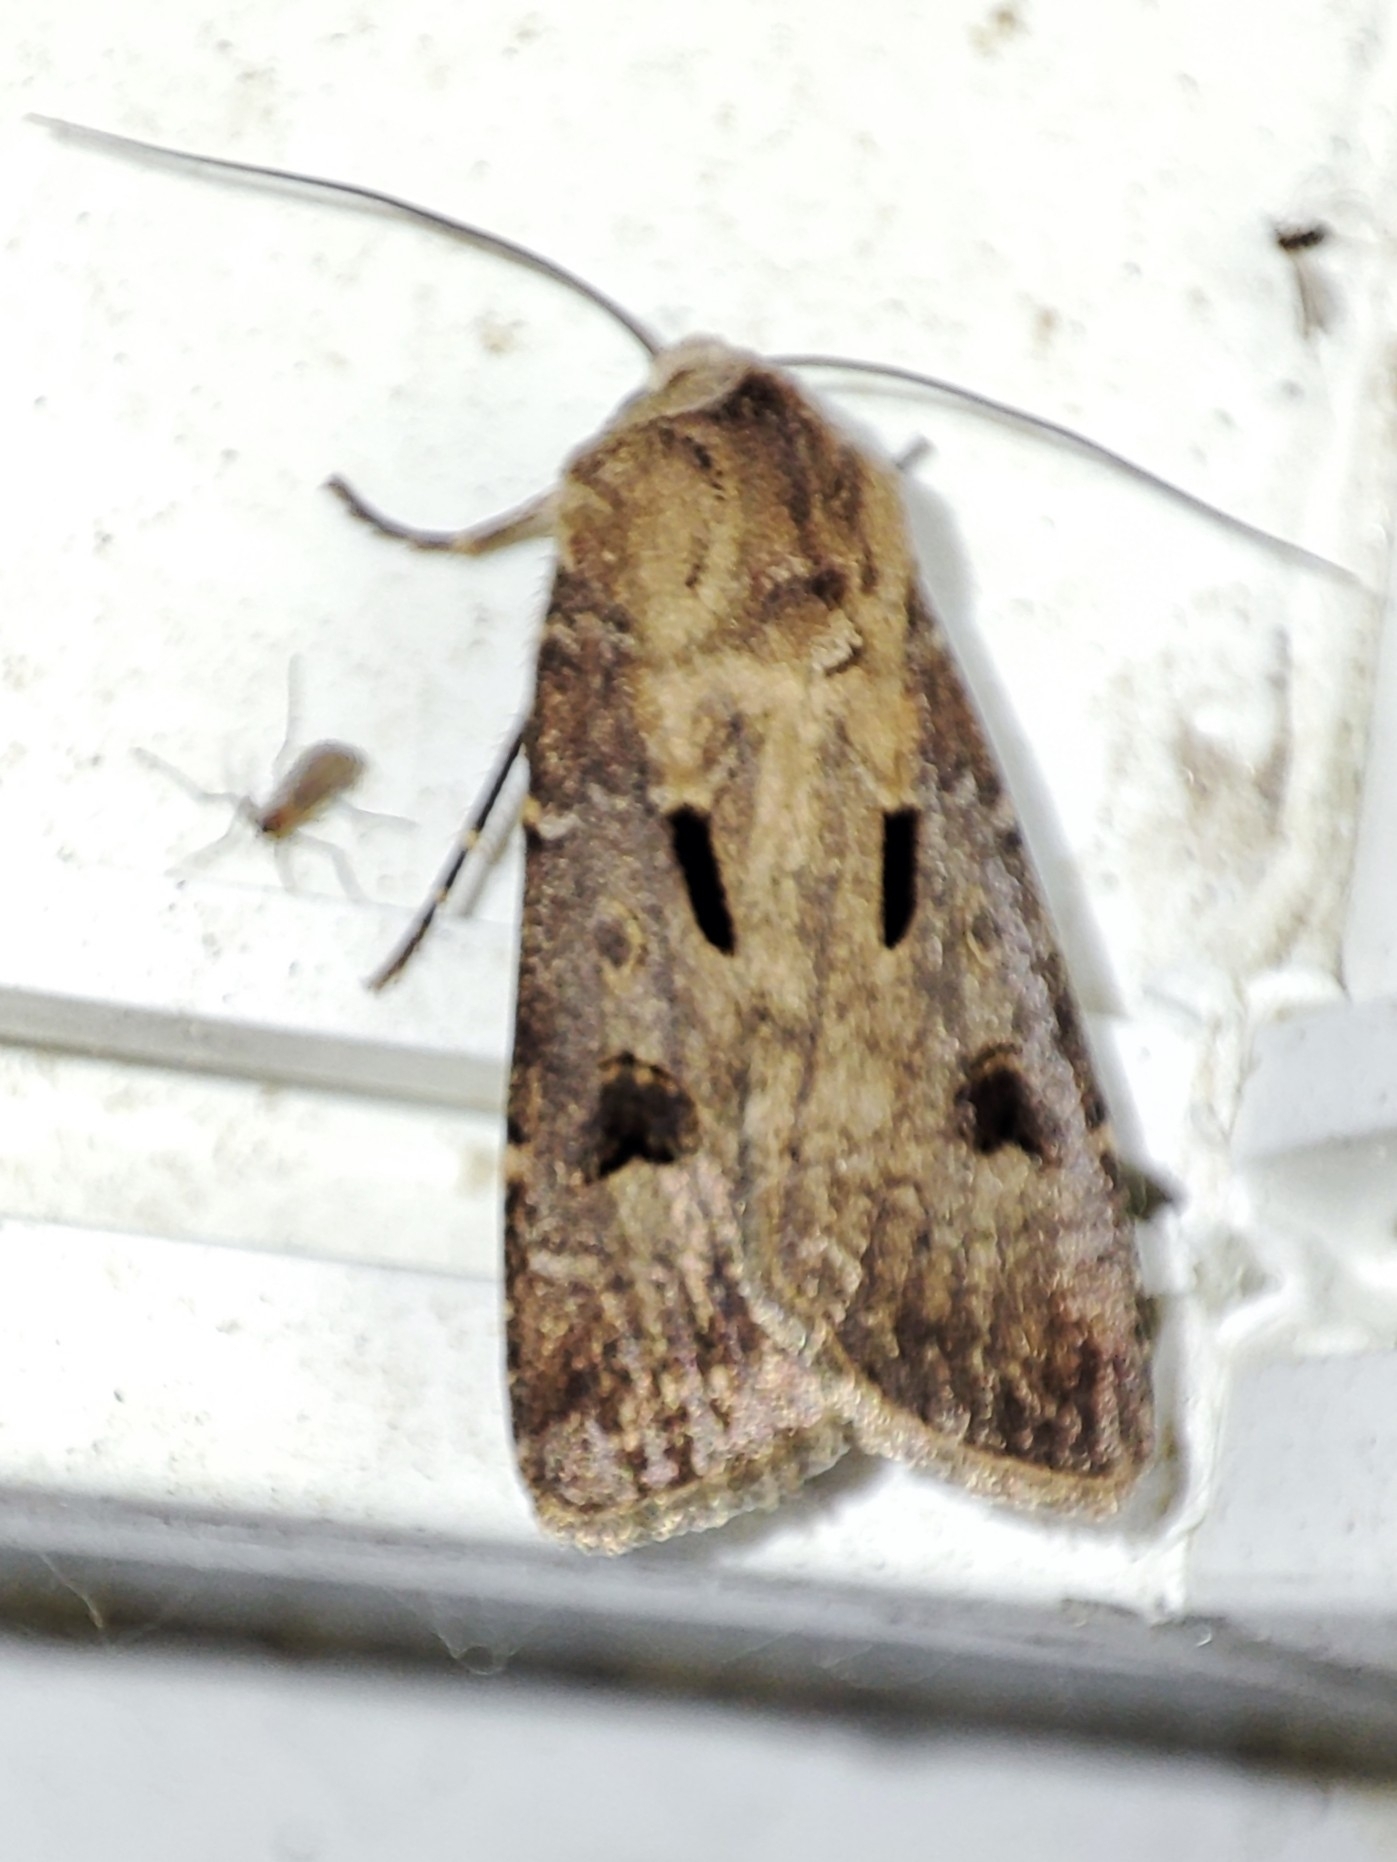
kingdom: Animalia
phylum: Arthropoda
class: Insecta
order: Lepidoptera
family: Noctuidae
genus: Agrotis
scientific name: Agrotis exclamationis
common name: Heart and dart
